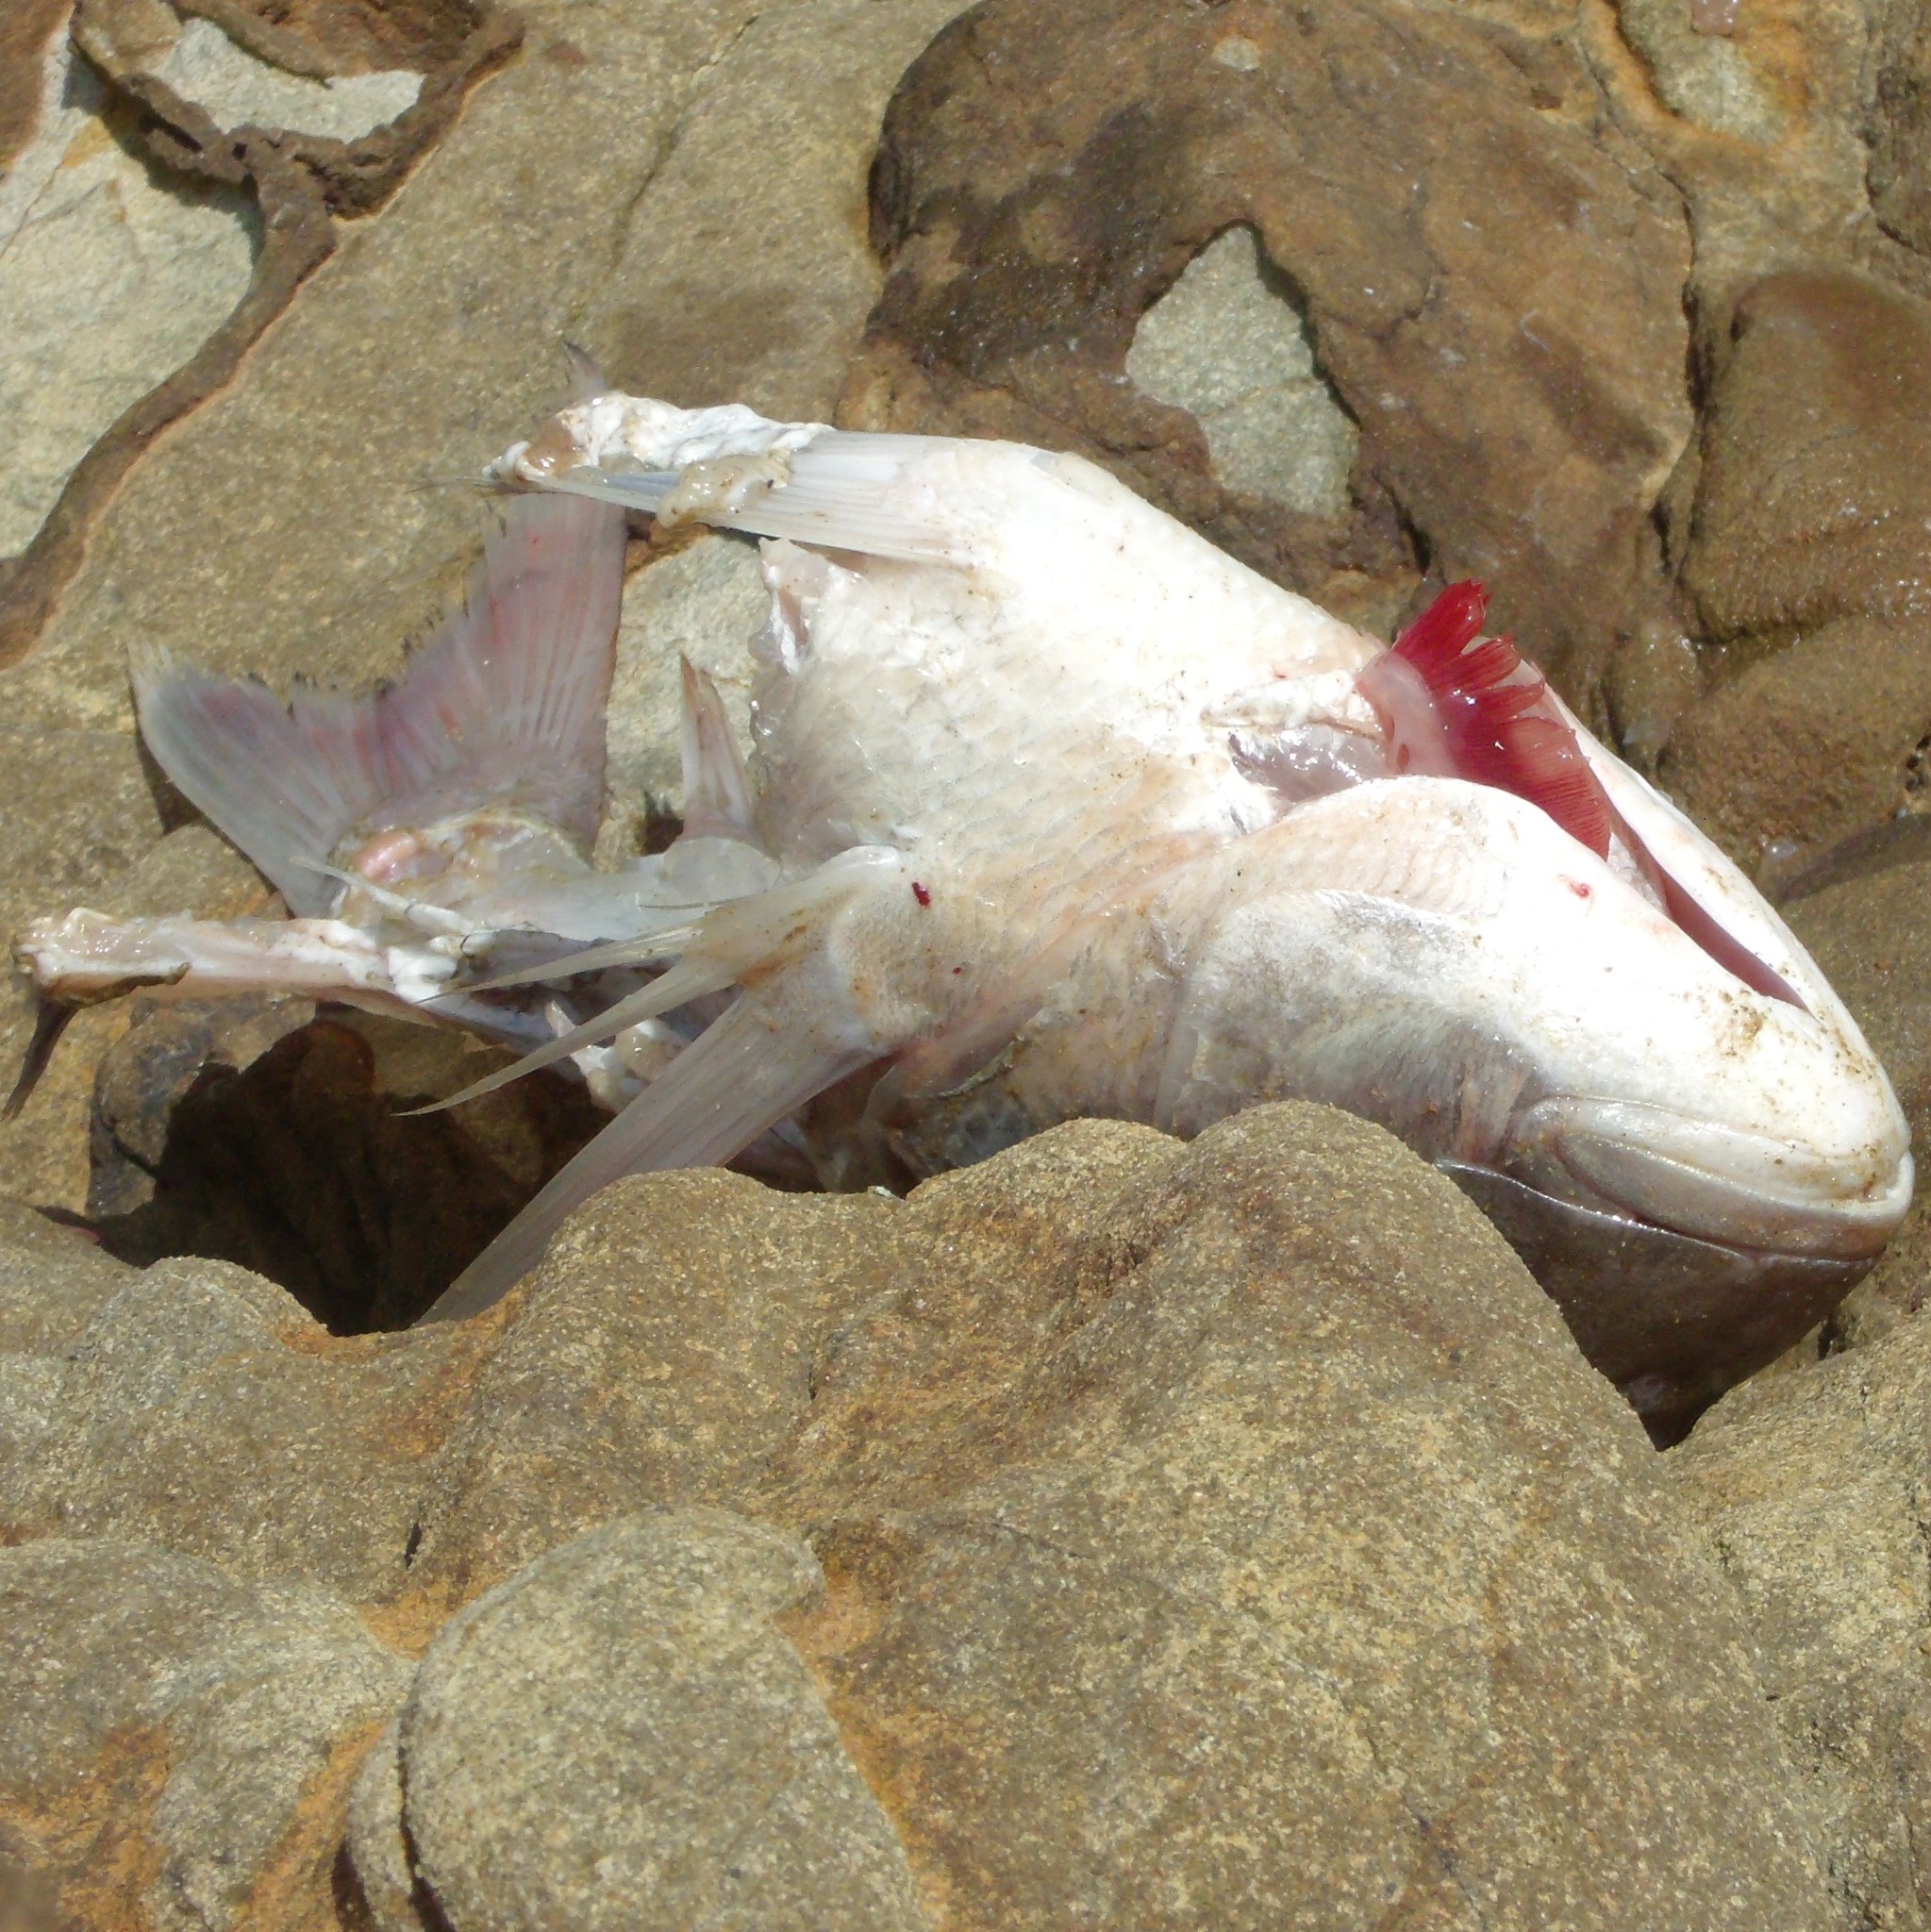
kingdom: Animalia
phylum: Chordata
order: Perciformes
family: Sparidae
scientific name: Sparidae
